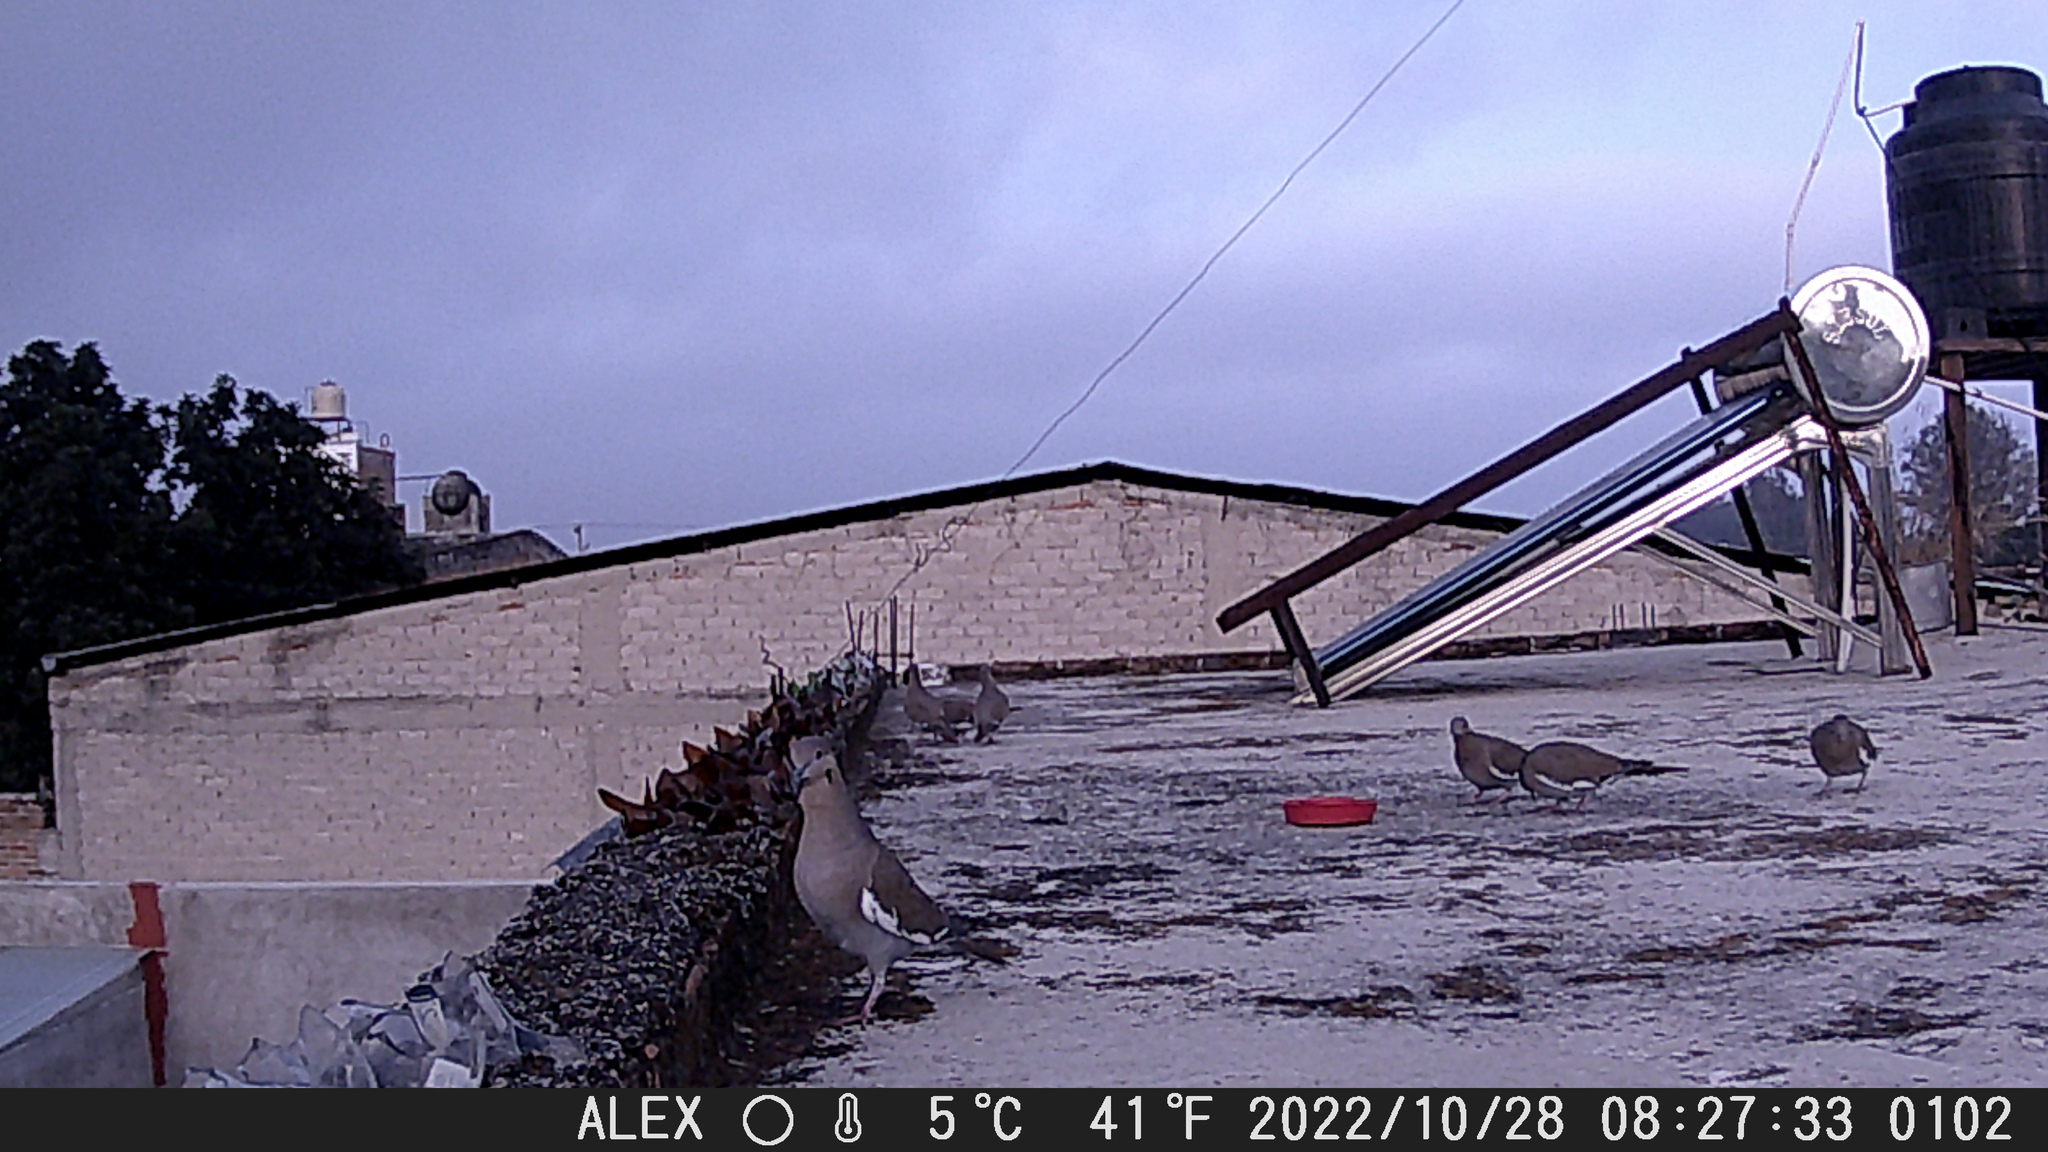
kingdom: Animalia
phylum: Chordata
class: Aves
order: Columbiformes
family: Columbidae
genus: Zenaida
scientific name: Zenaida asiatica
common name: White-winged dove
